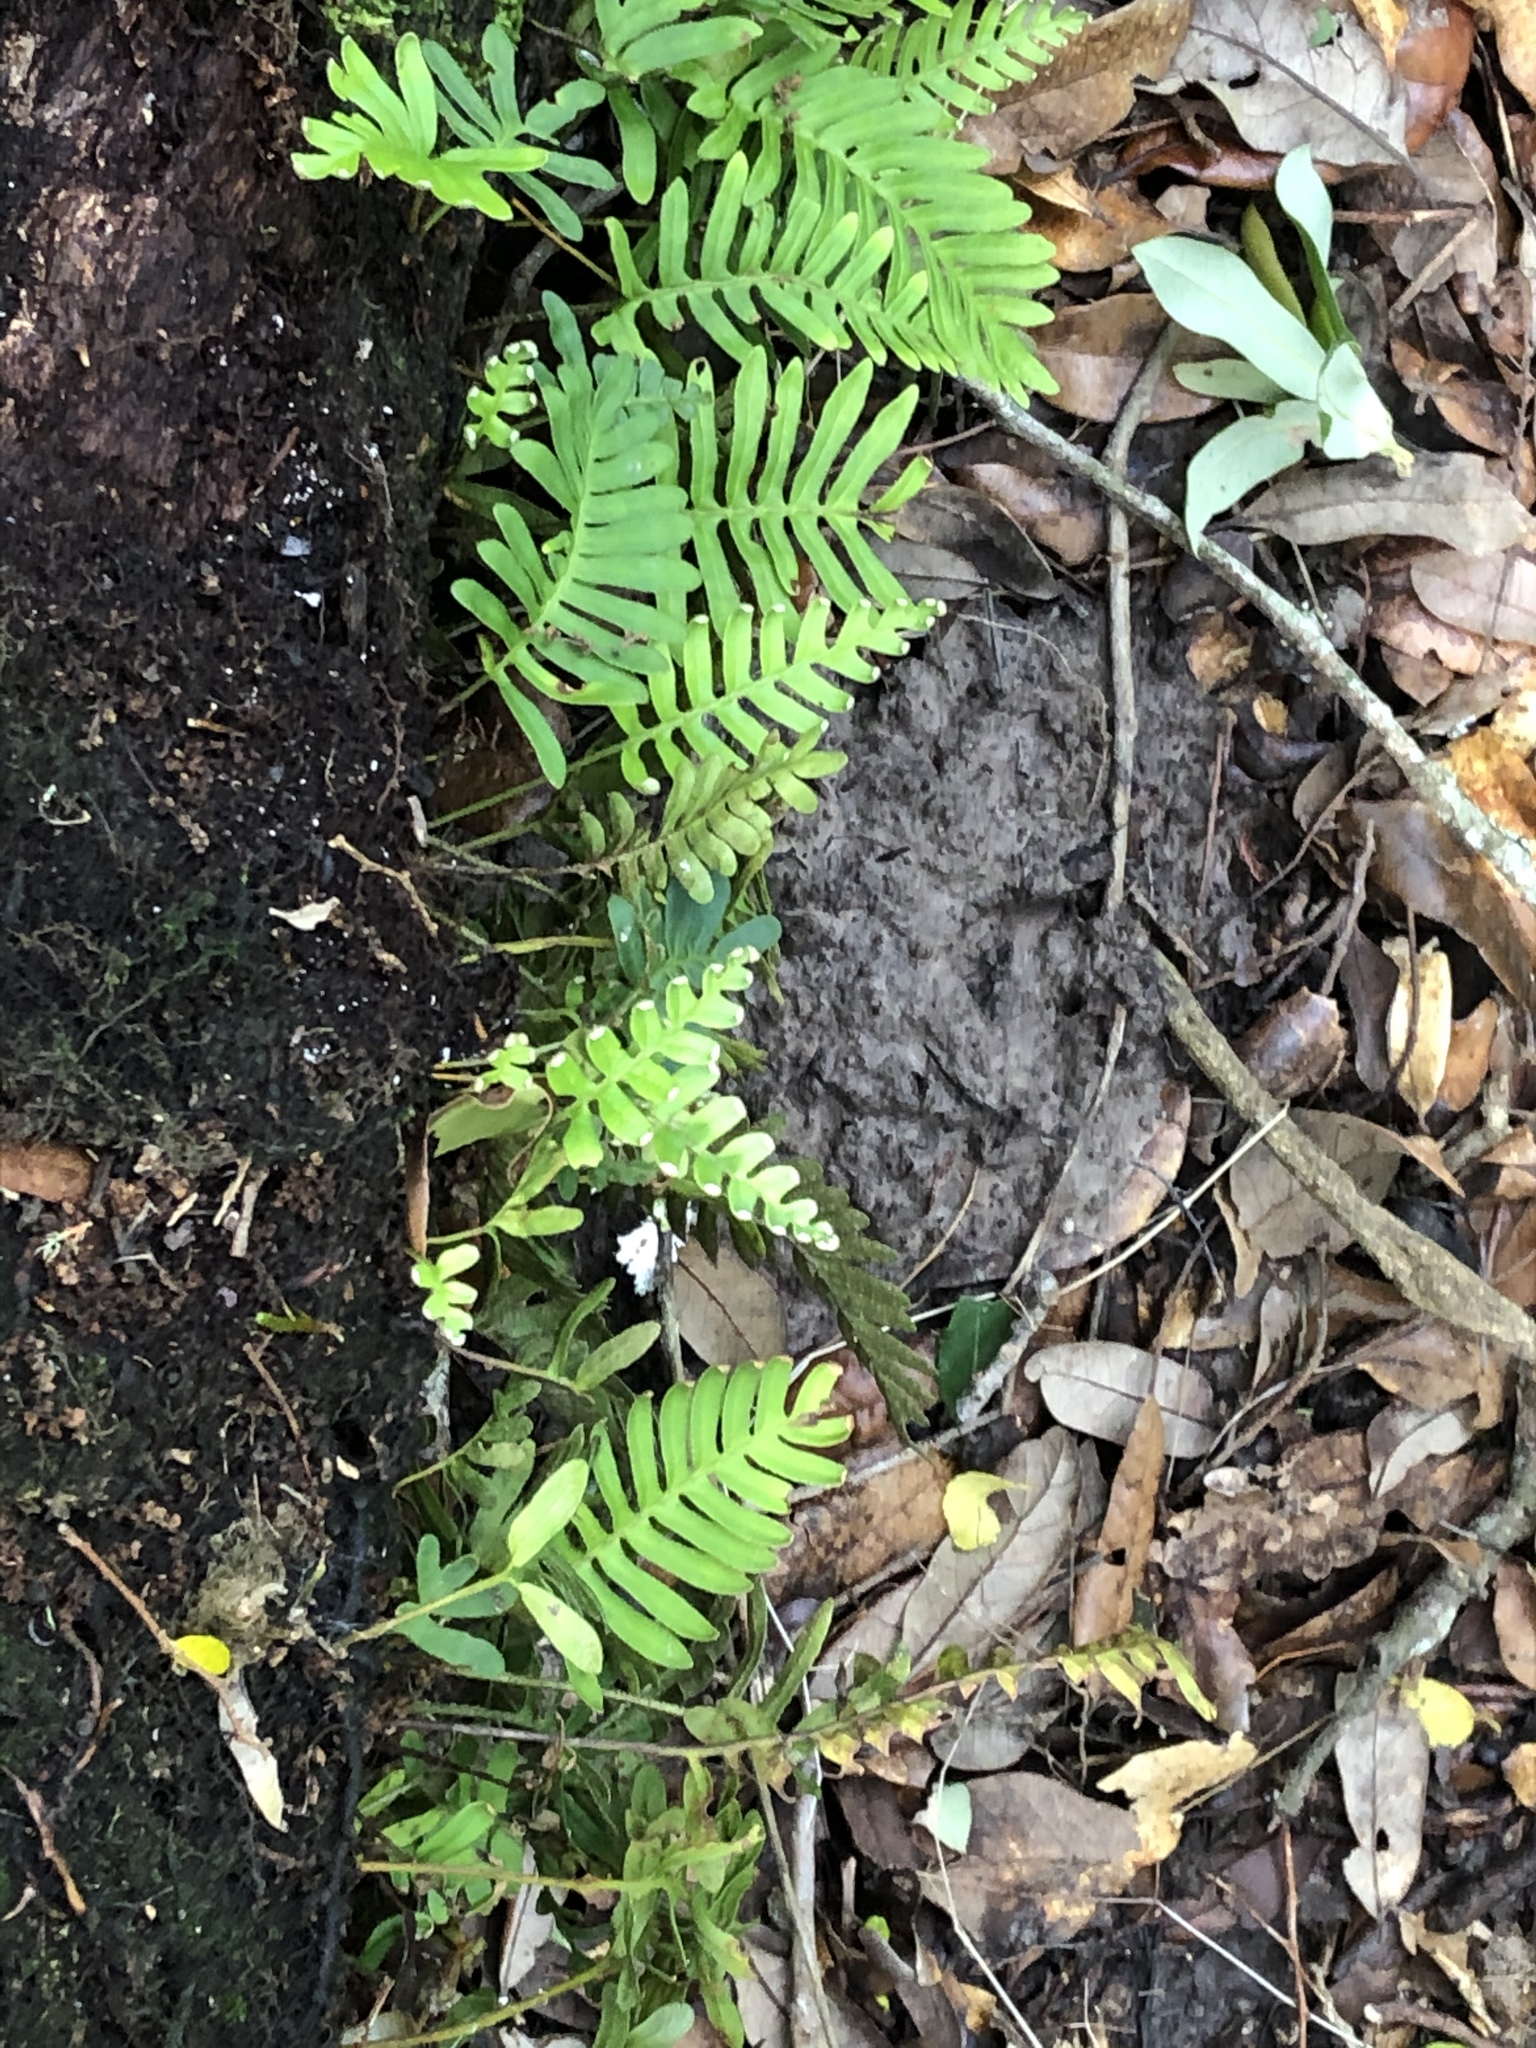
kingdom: Plantae
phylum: Tracheophyta
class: Polypodiopsida
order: Polypodiales
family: Polypodiaceae
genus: Pleopeltis
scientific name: Pleopeltis michauxiana
